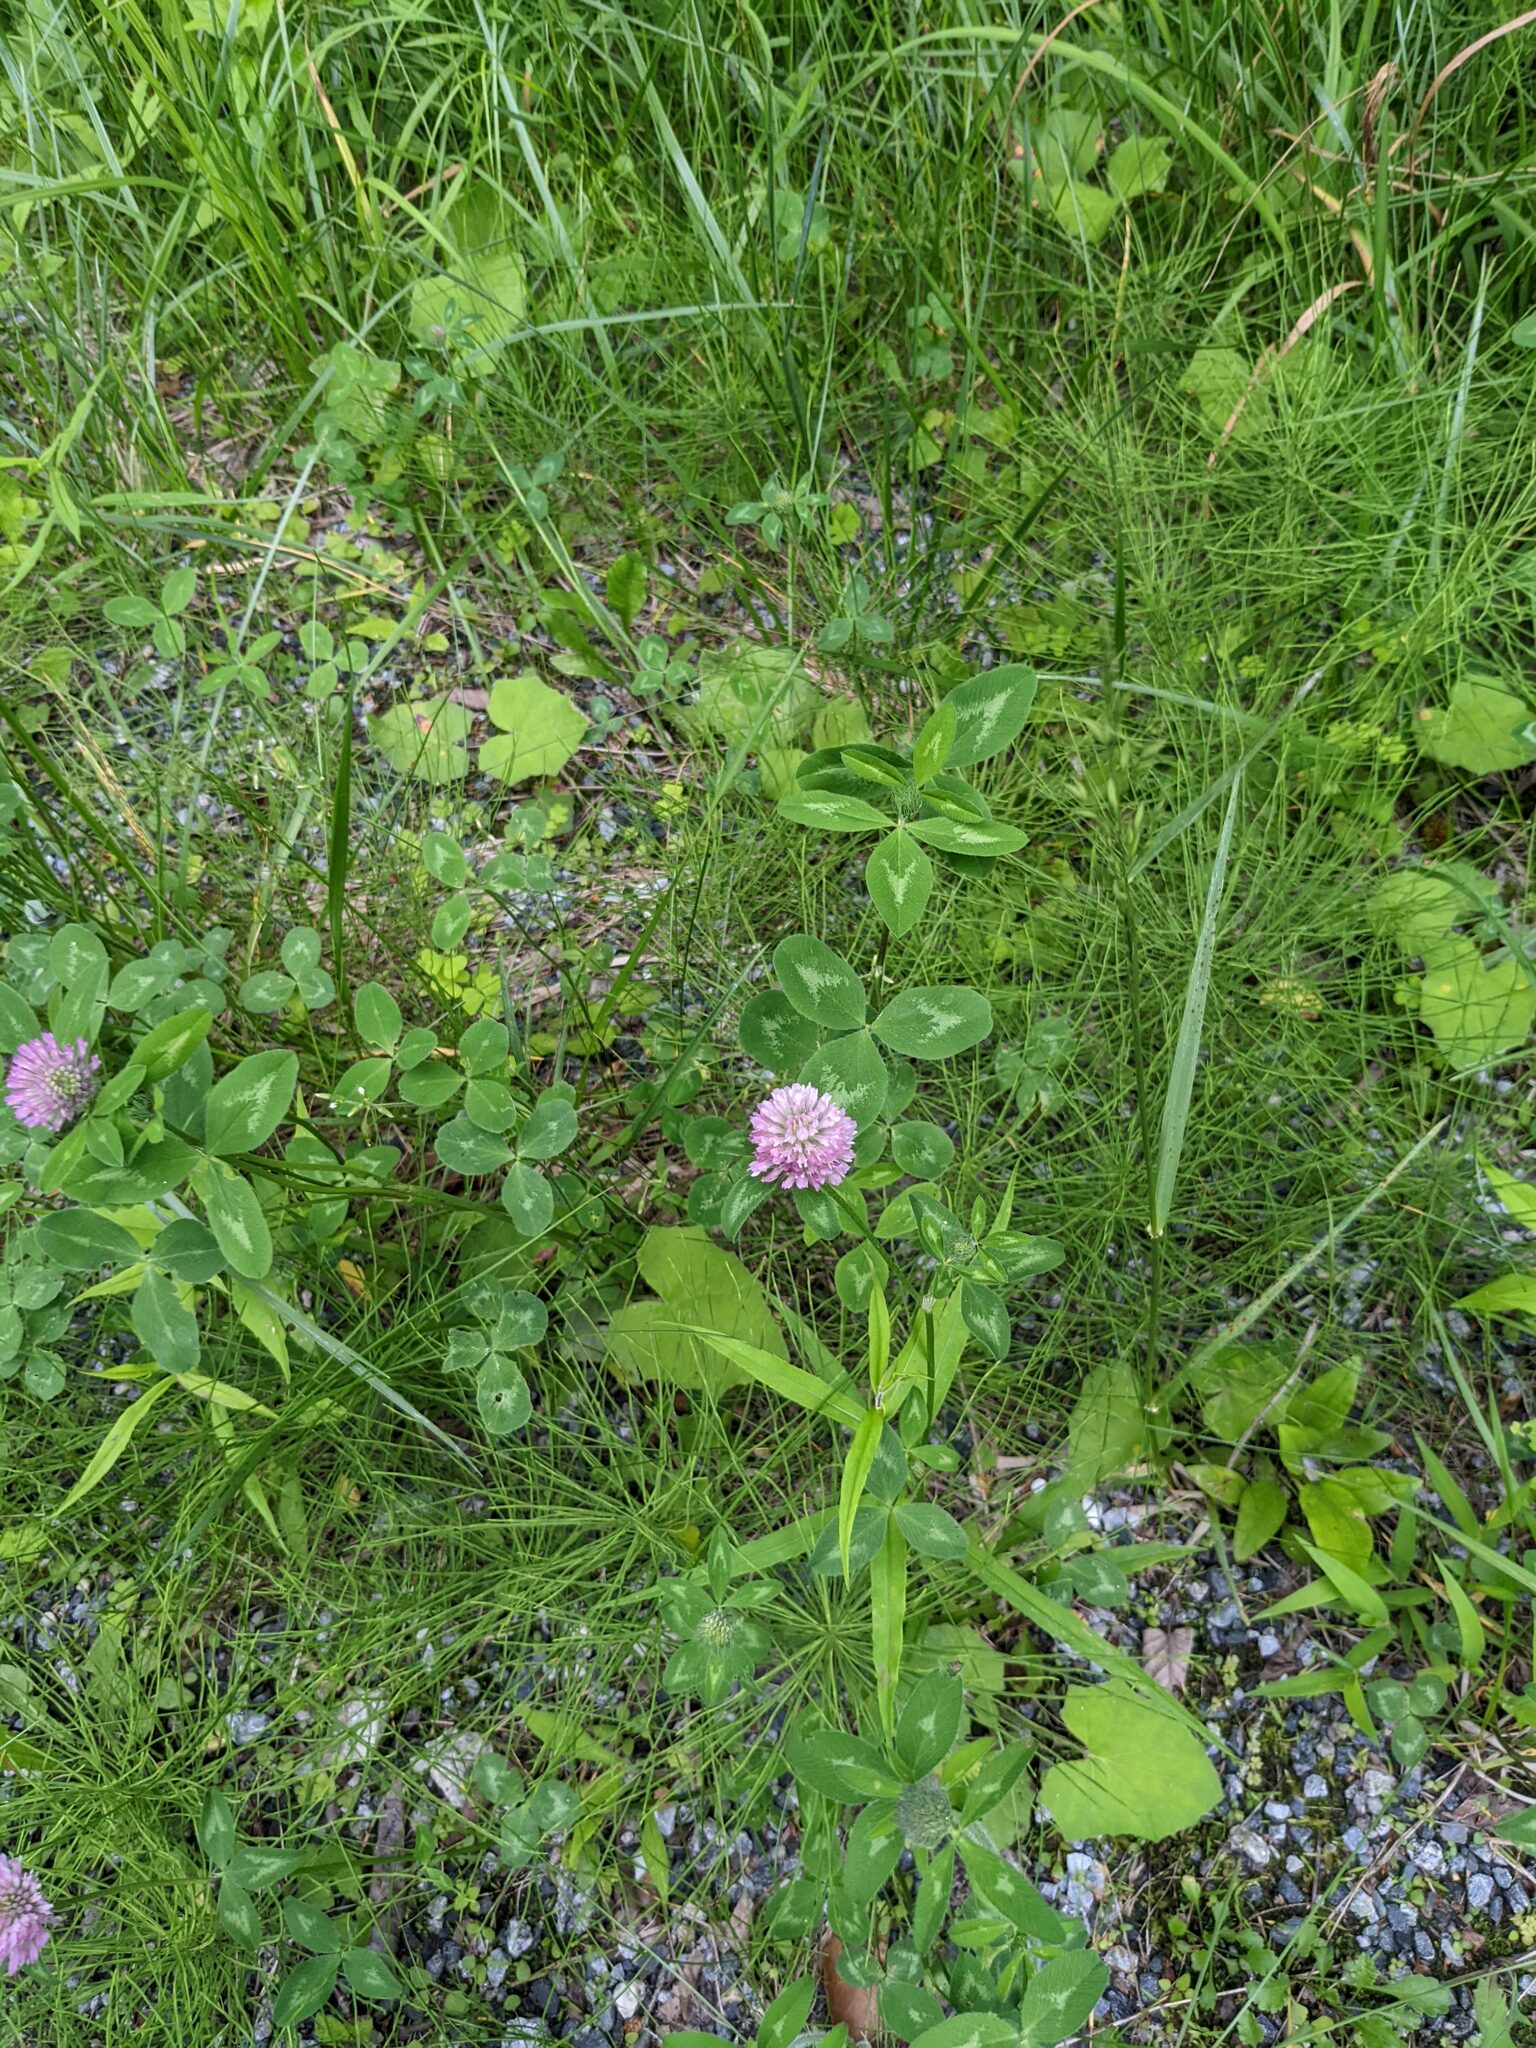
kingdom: Plantae
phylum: Tracheophyta
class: Magnoliopsida
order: Fabales
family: Fabaceae
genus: Trifolium
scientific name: Trifolium pratense
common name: Red clover
